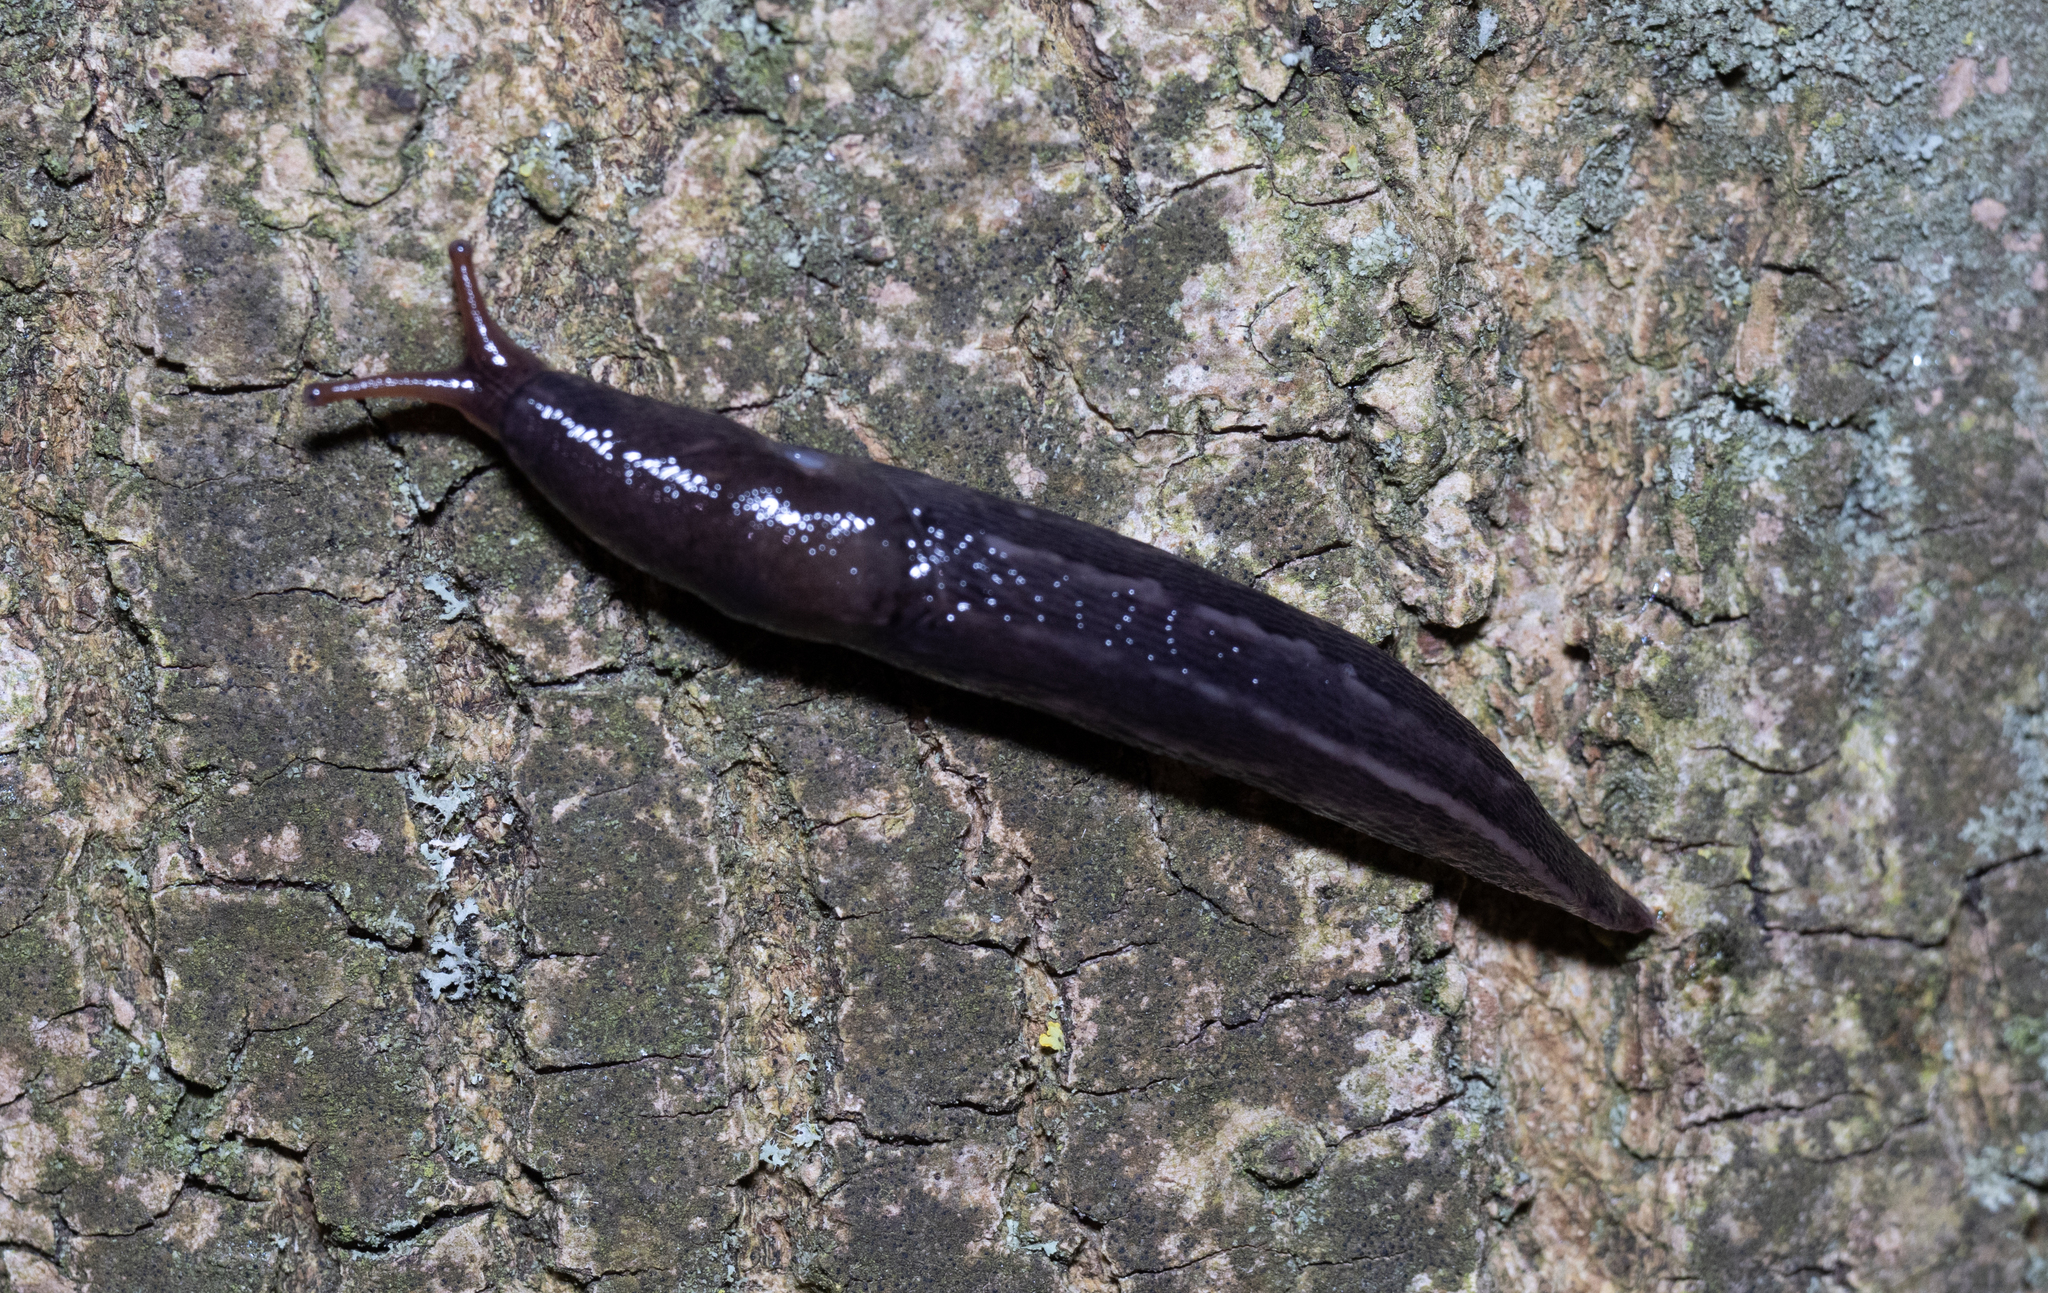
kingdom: Animalia
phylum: Mollusca
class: Gastropoda
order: Stylommatophora
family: Limacidae
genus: Limax
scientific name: Limax maximus
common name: Great grey slug
